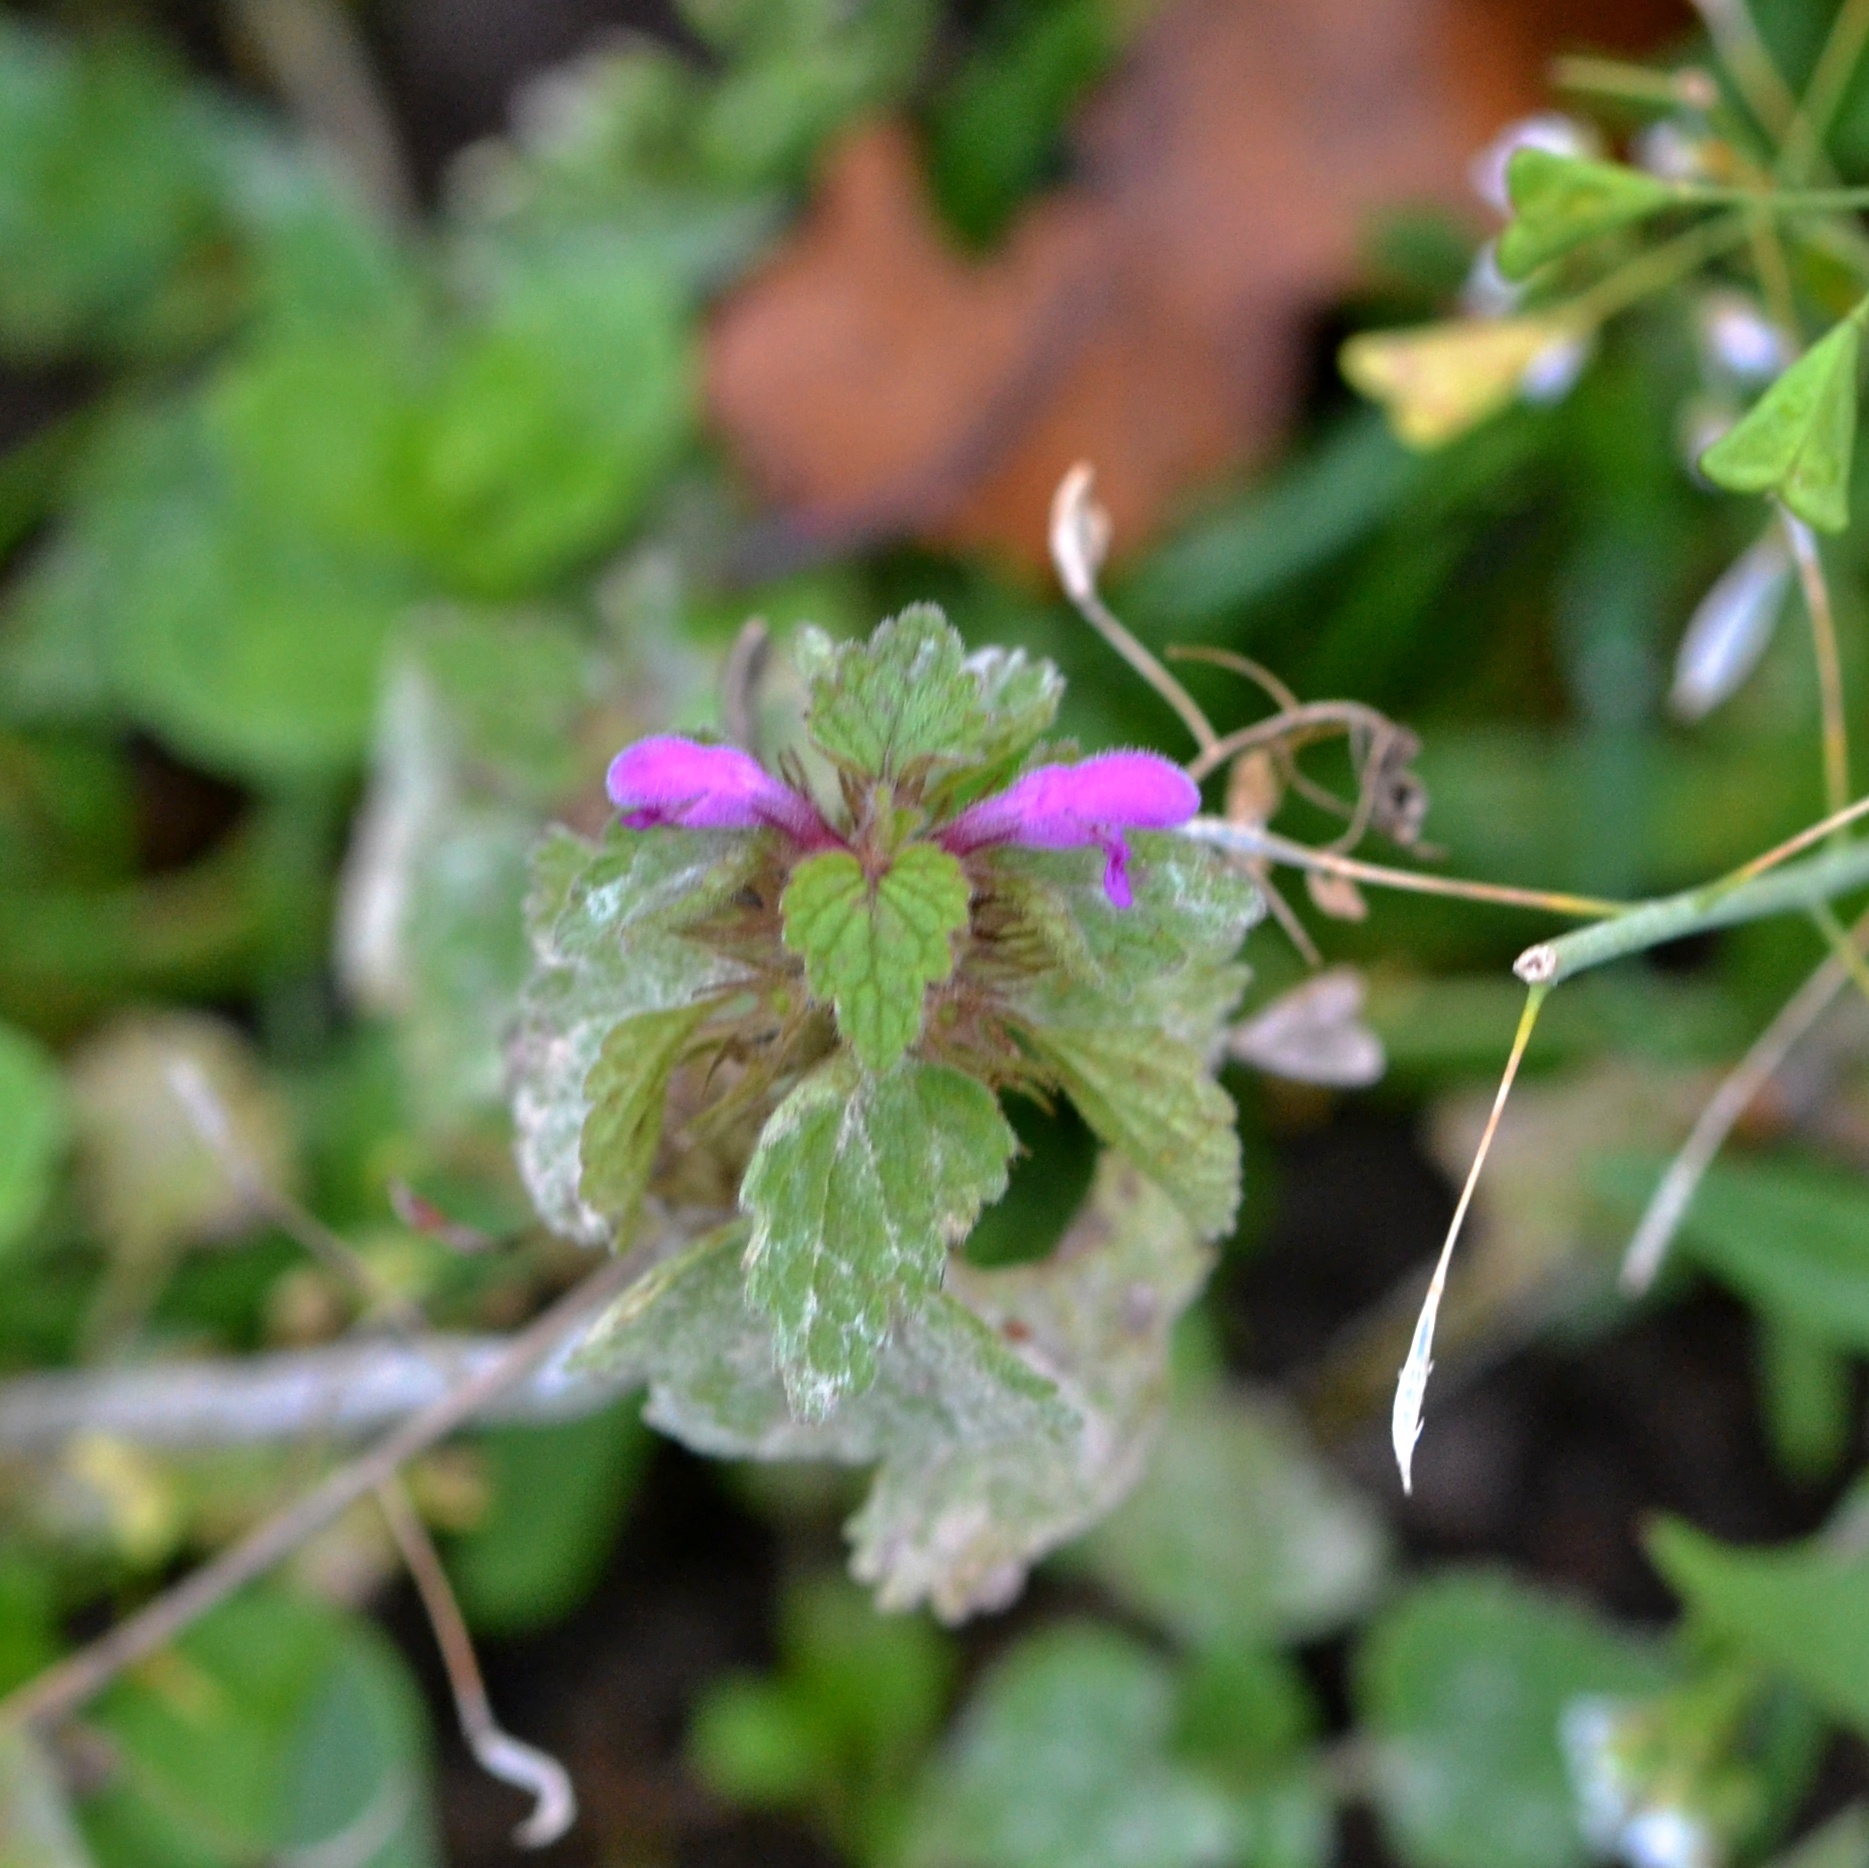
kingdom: Plantae
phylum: Tracheophyta
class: Magnoliopsida
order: Lamiales
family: Lamiaceae
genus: Lamium
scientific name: Lamium purpureum
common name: Red dead-nettle
